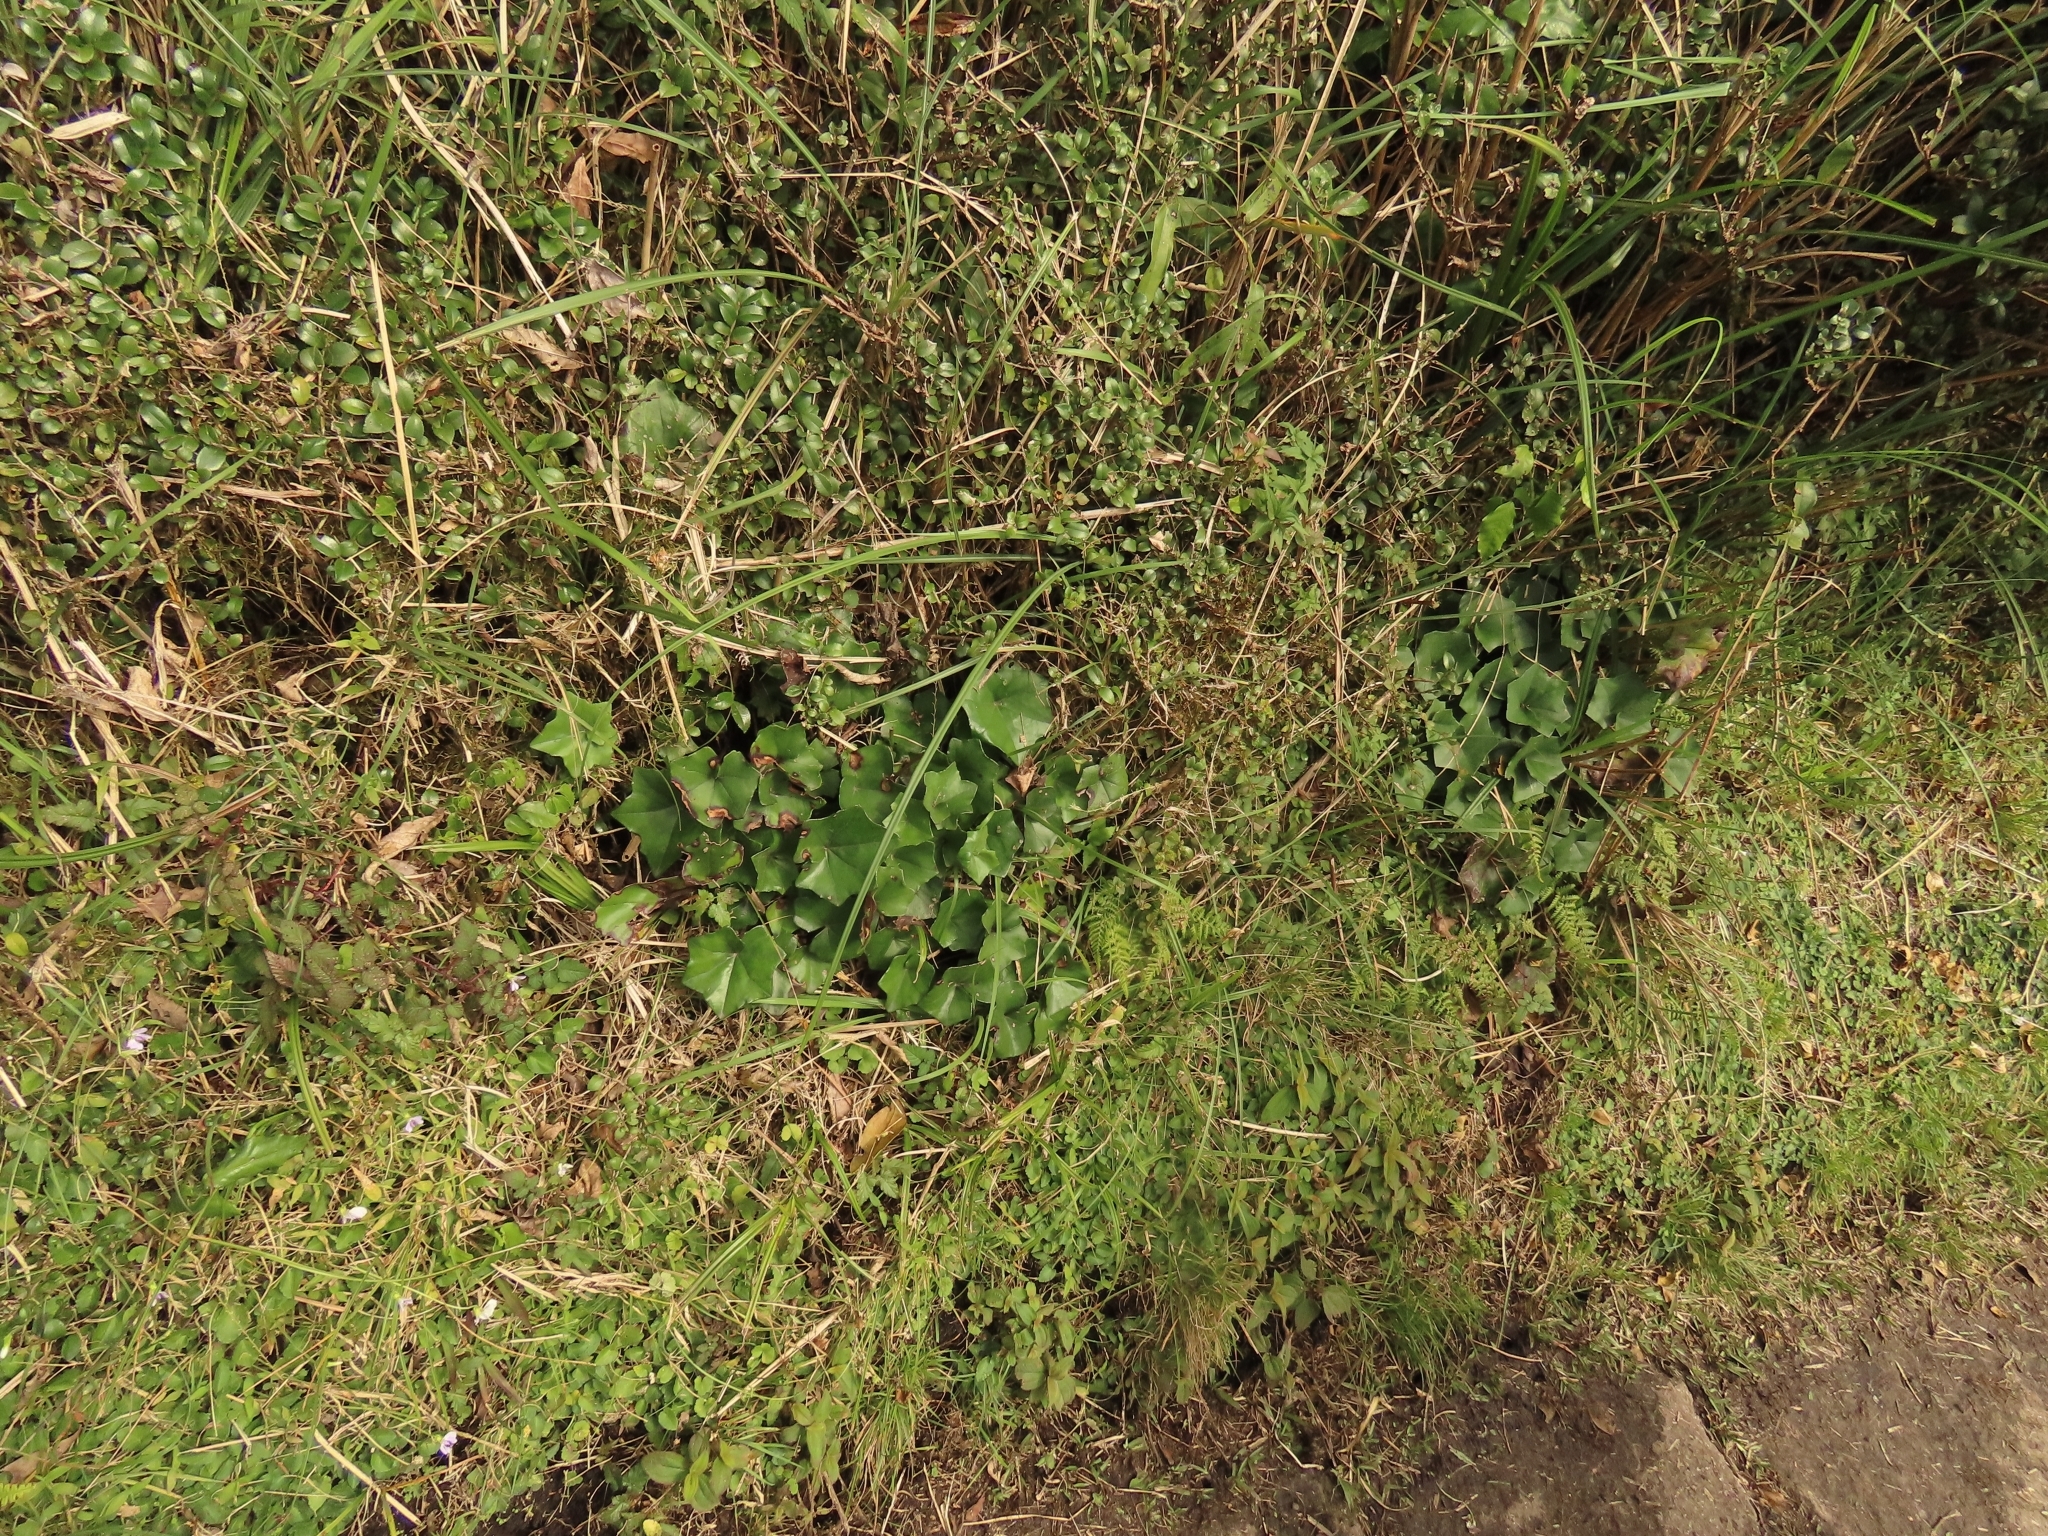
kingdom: Plantae
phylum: Tracheophyta
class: Magnoliopsida
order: Asterales
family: Asteraceae
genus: Farfugium
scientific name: Farfugium japonicum
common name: Leopardplant
